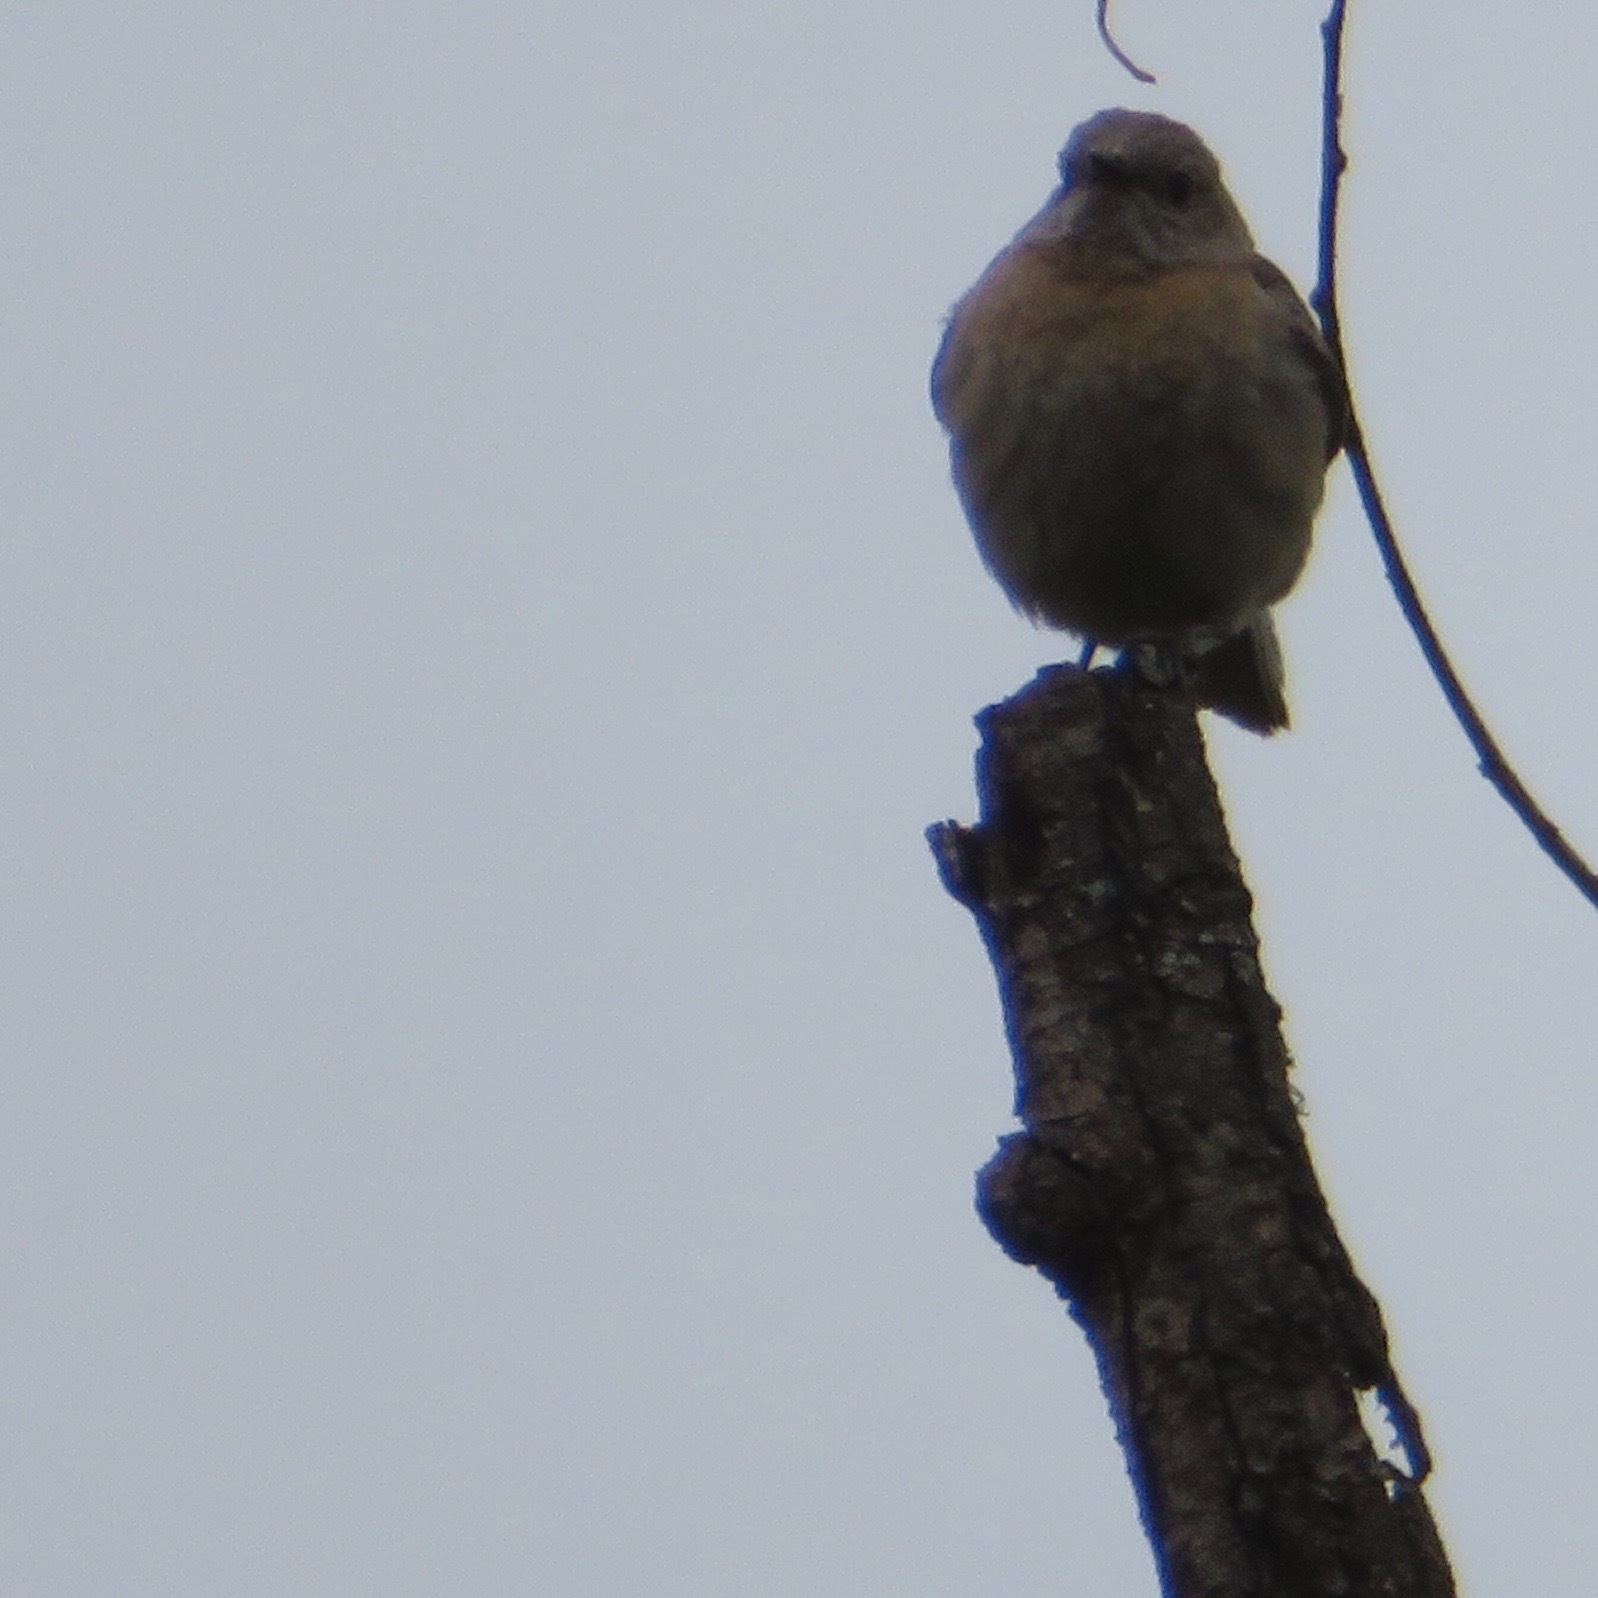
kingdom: Animalia
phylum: Chordata
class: Aves
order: Passeriformes
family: Turdidae
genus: Sialia
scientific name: Sialia mexicana
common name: Western bluebird
